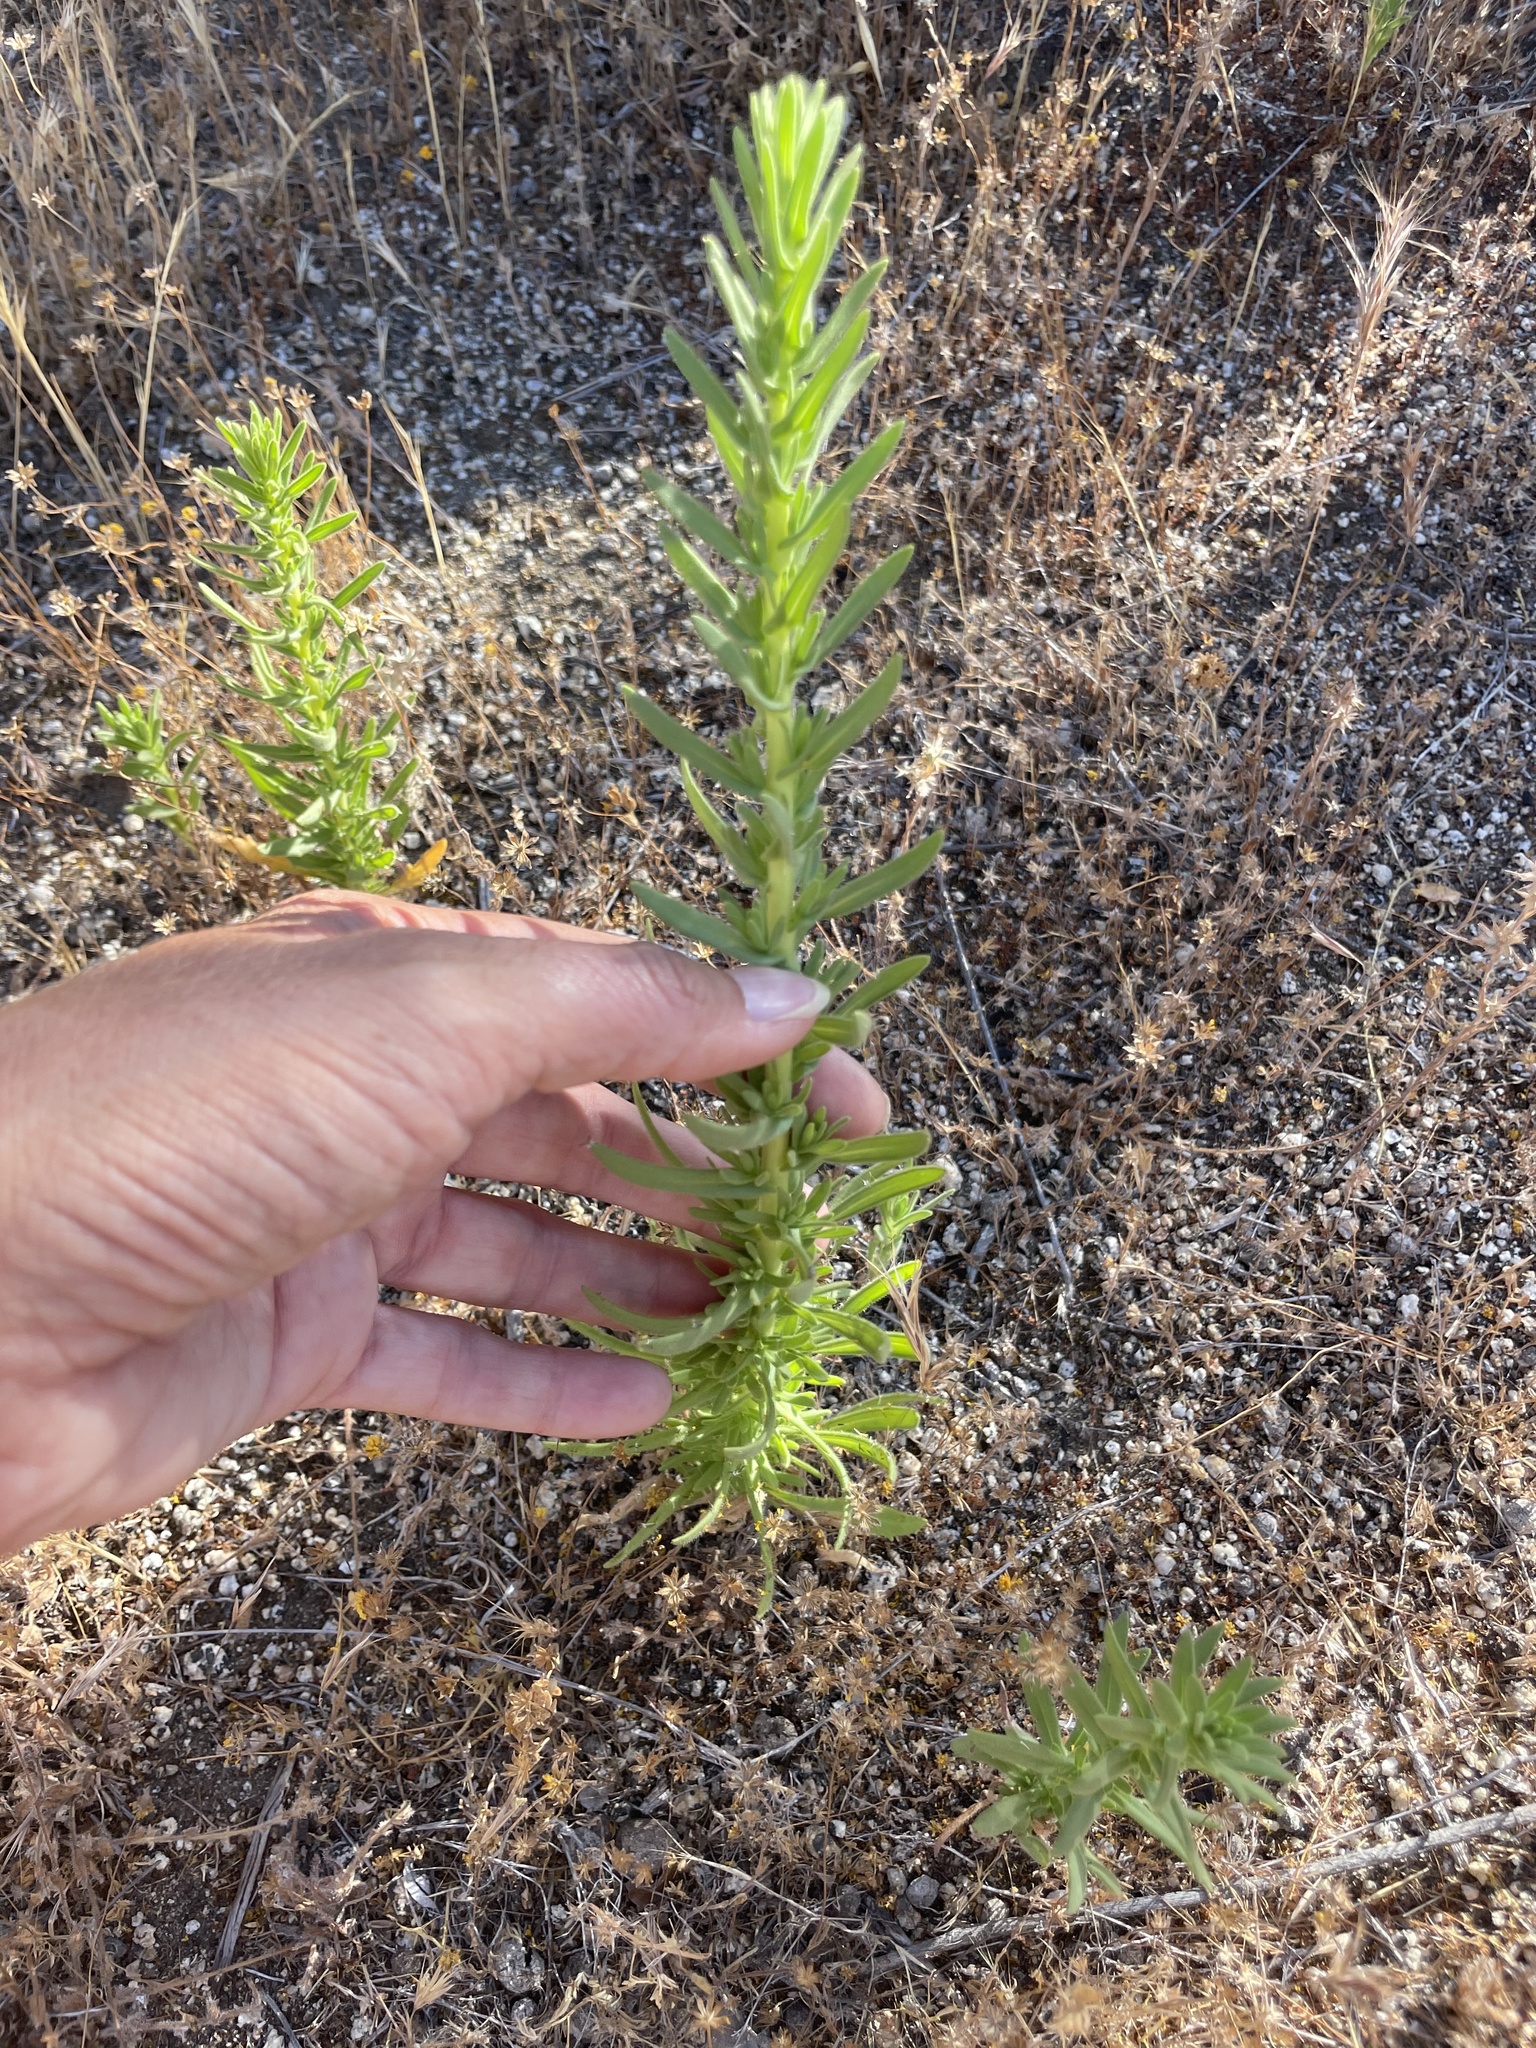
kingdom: Plantae
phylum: Tracheophyta
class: Magnoliopsida
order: Asterales
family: Asteraceae
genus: Deinandra
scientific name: Deinandra floribunda
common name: Tecate tarweed
